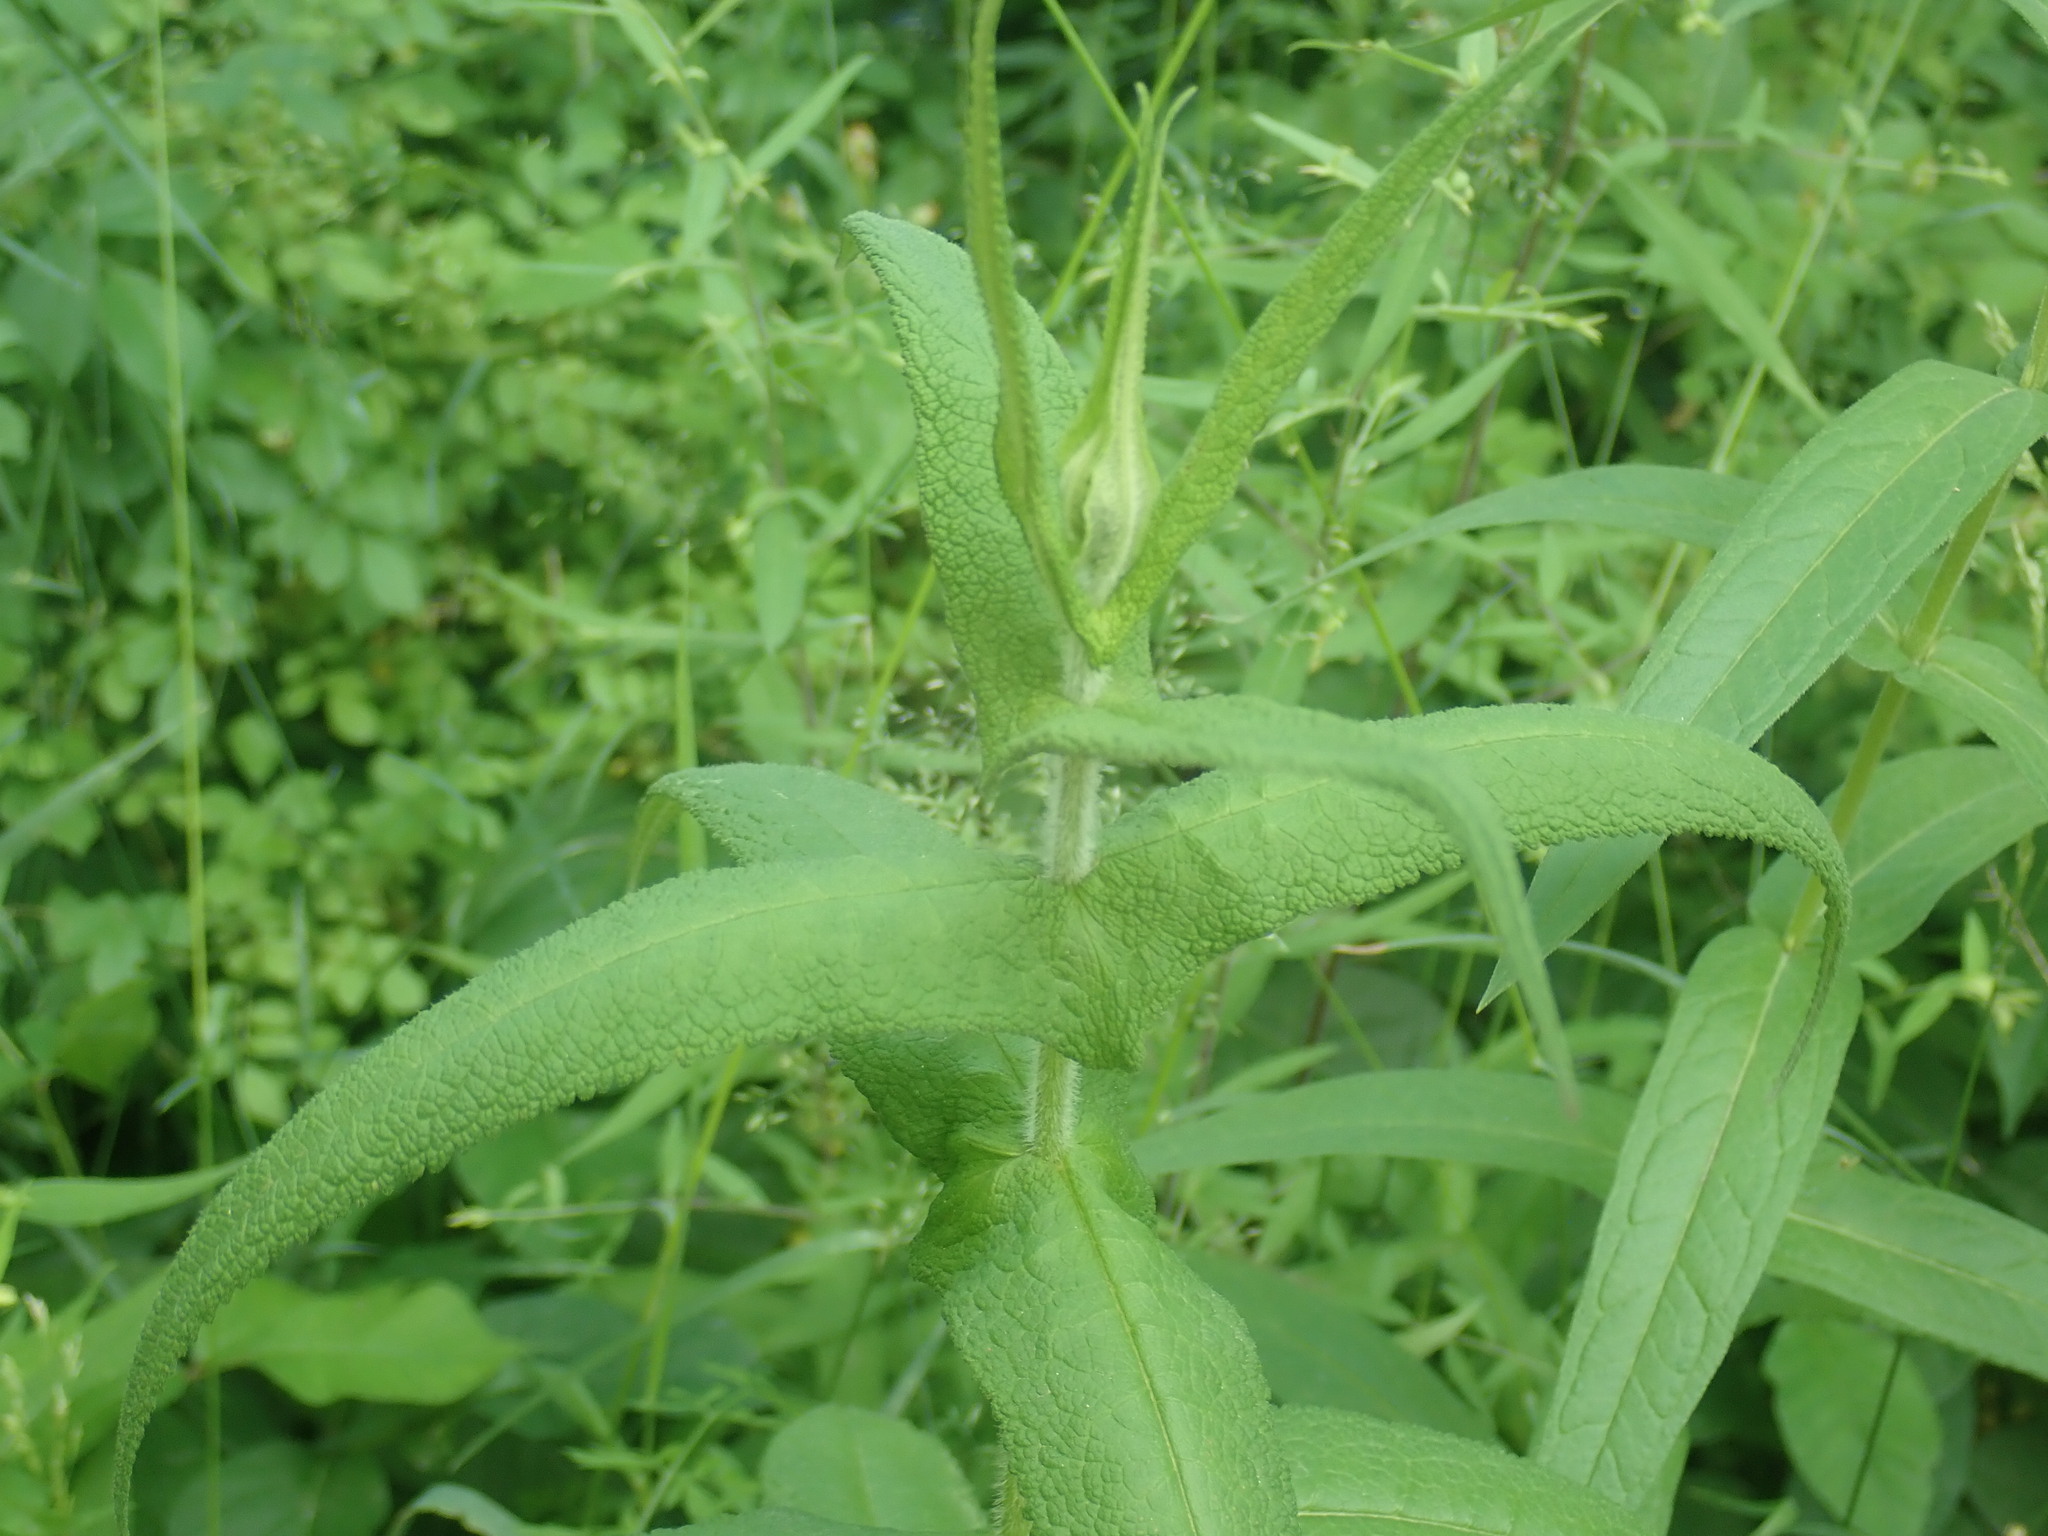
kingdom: Plantae
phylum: Tracheophyta
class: Magnoliopsida
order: Asterales
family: Asteraceae
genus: Eupatorium
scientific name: Eupatorium perfoliatum
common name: Boneset
